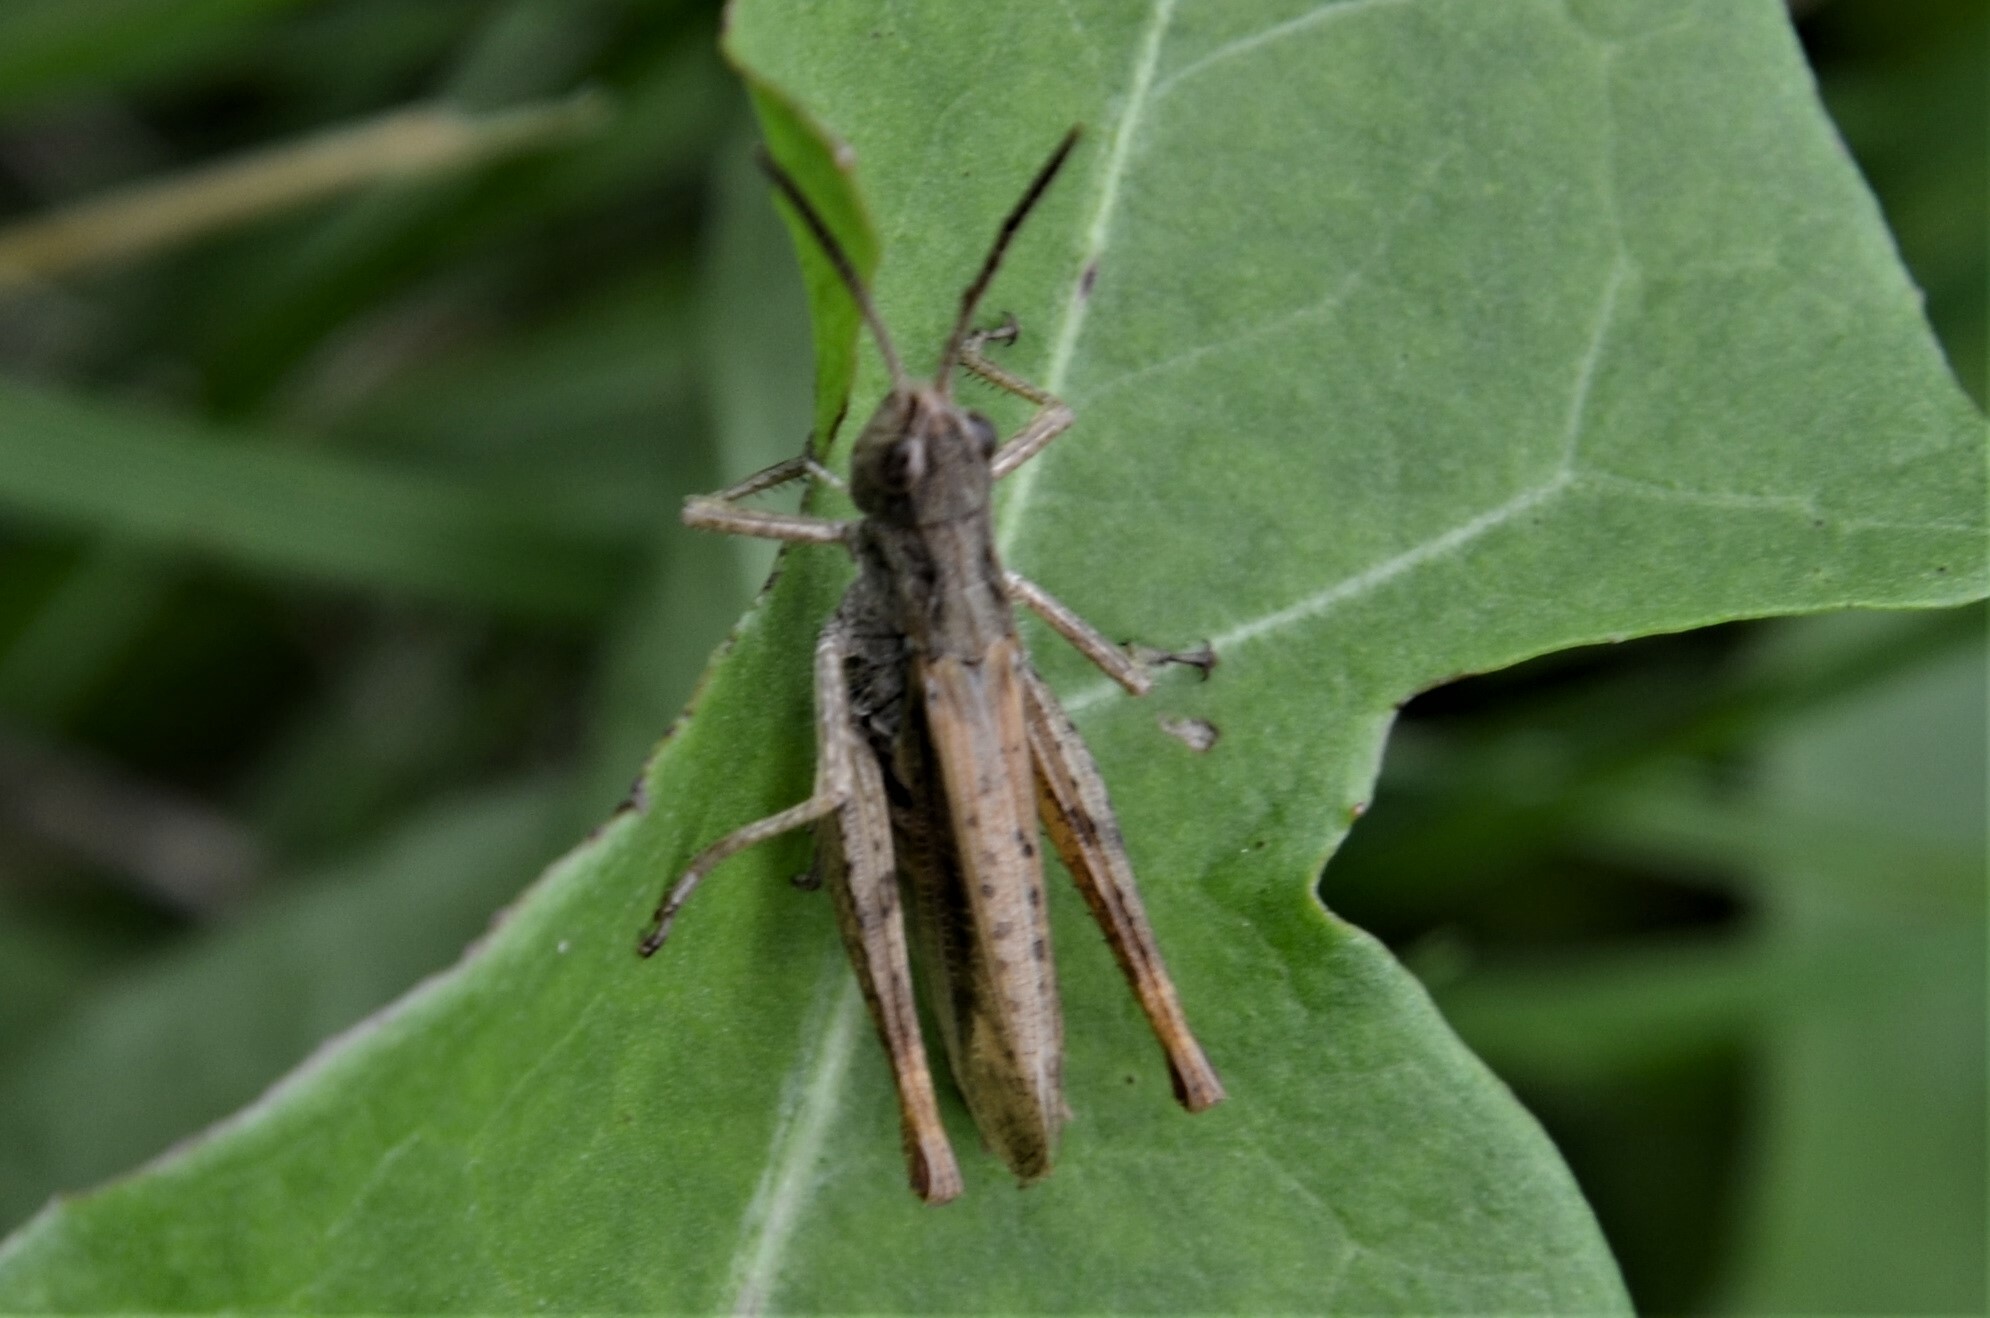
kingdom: Animalia
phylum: Arthropoda
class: Insecta
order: Orthoptera
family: Acrididae
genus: Chorthippus
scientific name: Chorthippus apricarius
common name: Upland field grasshopper
